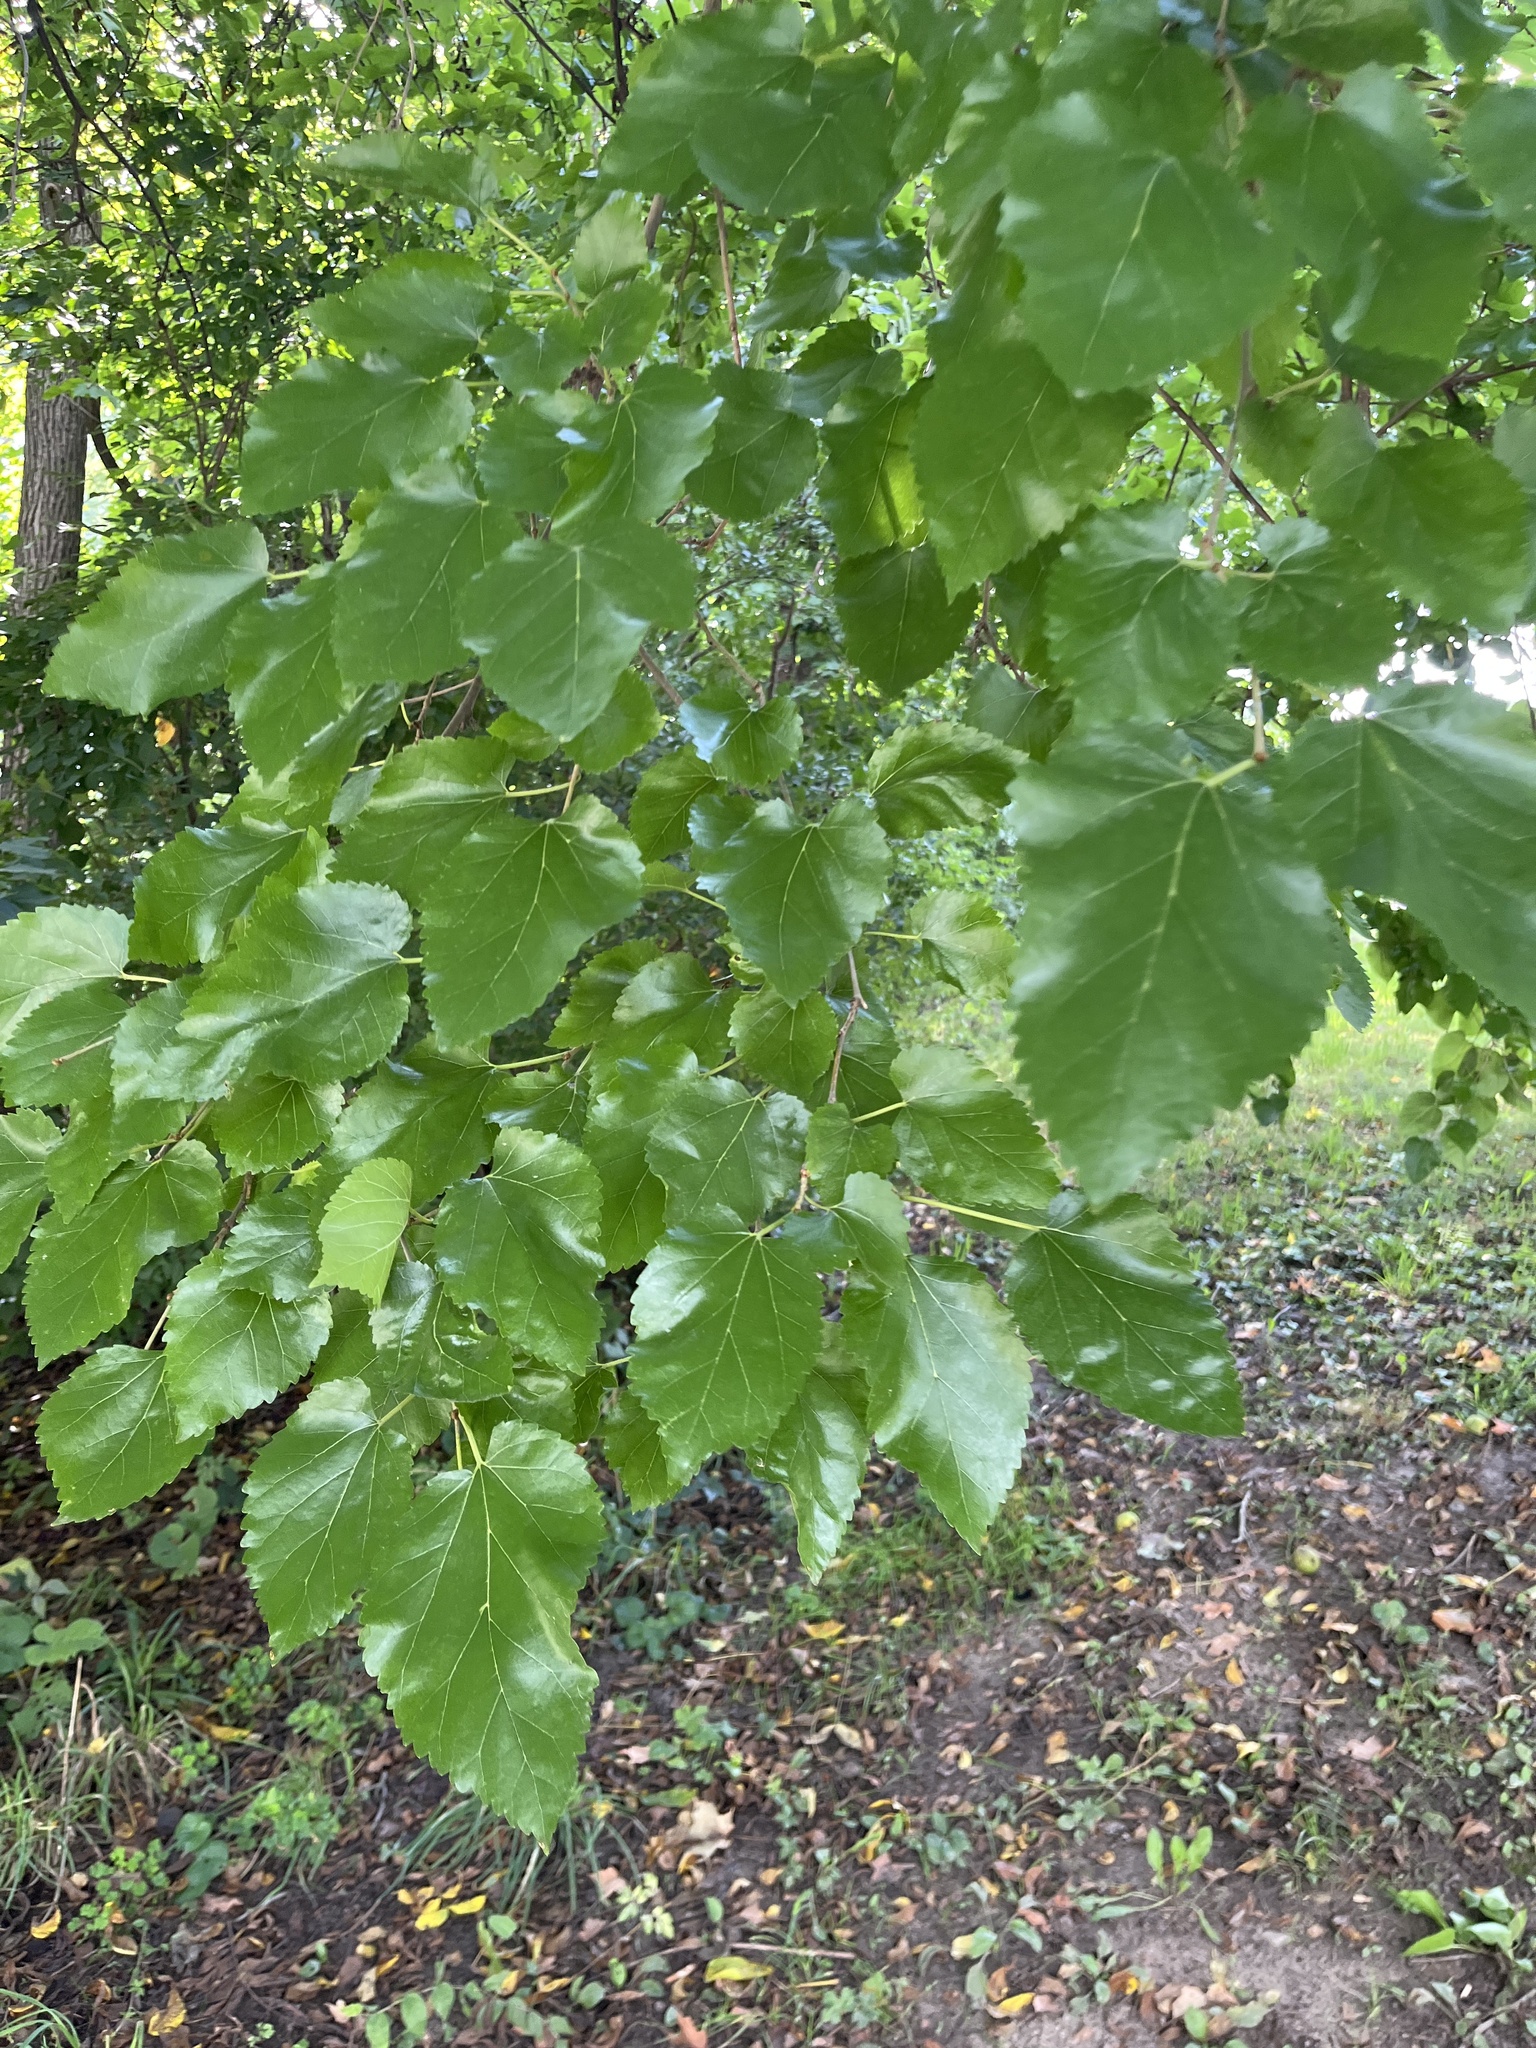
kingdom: Plantae
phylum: Tracheophyta
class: Magnoliopsida
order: Rosales
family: Moraceae
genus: Morus
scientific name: Morus alba
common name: White mulberry
